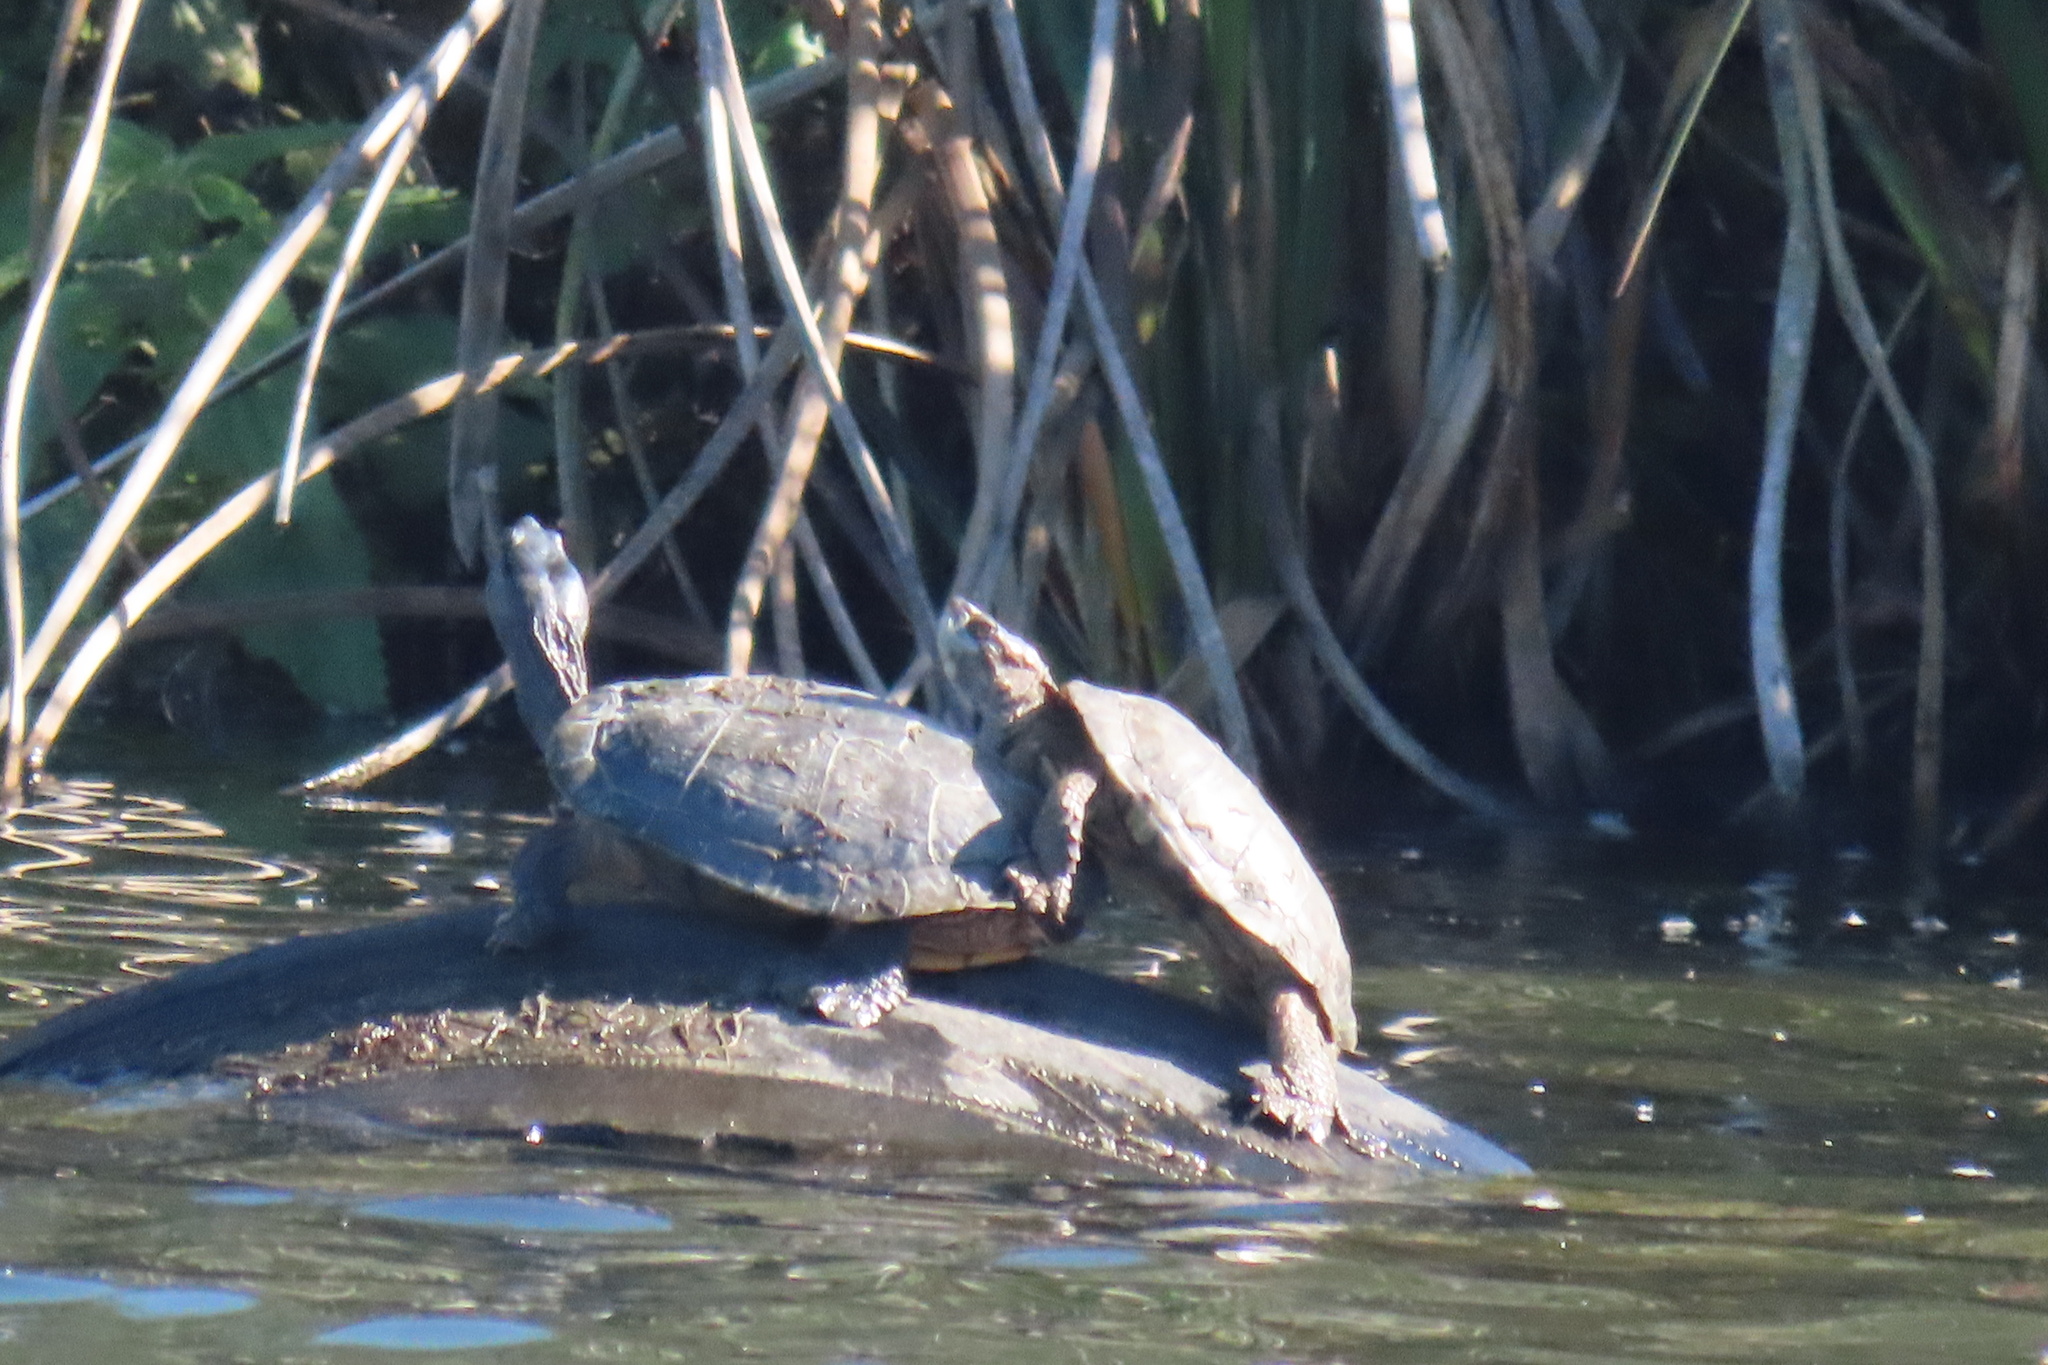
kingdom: Animalia
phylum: Chordata
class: Testudines
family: Emydidae
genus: Actinemys
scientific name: Actinemys marmorata
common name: Western pond turtle
